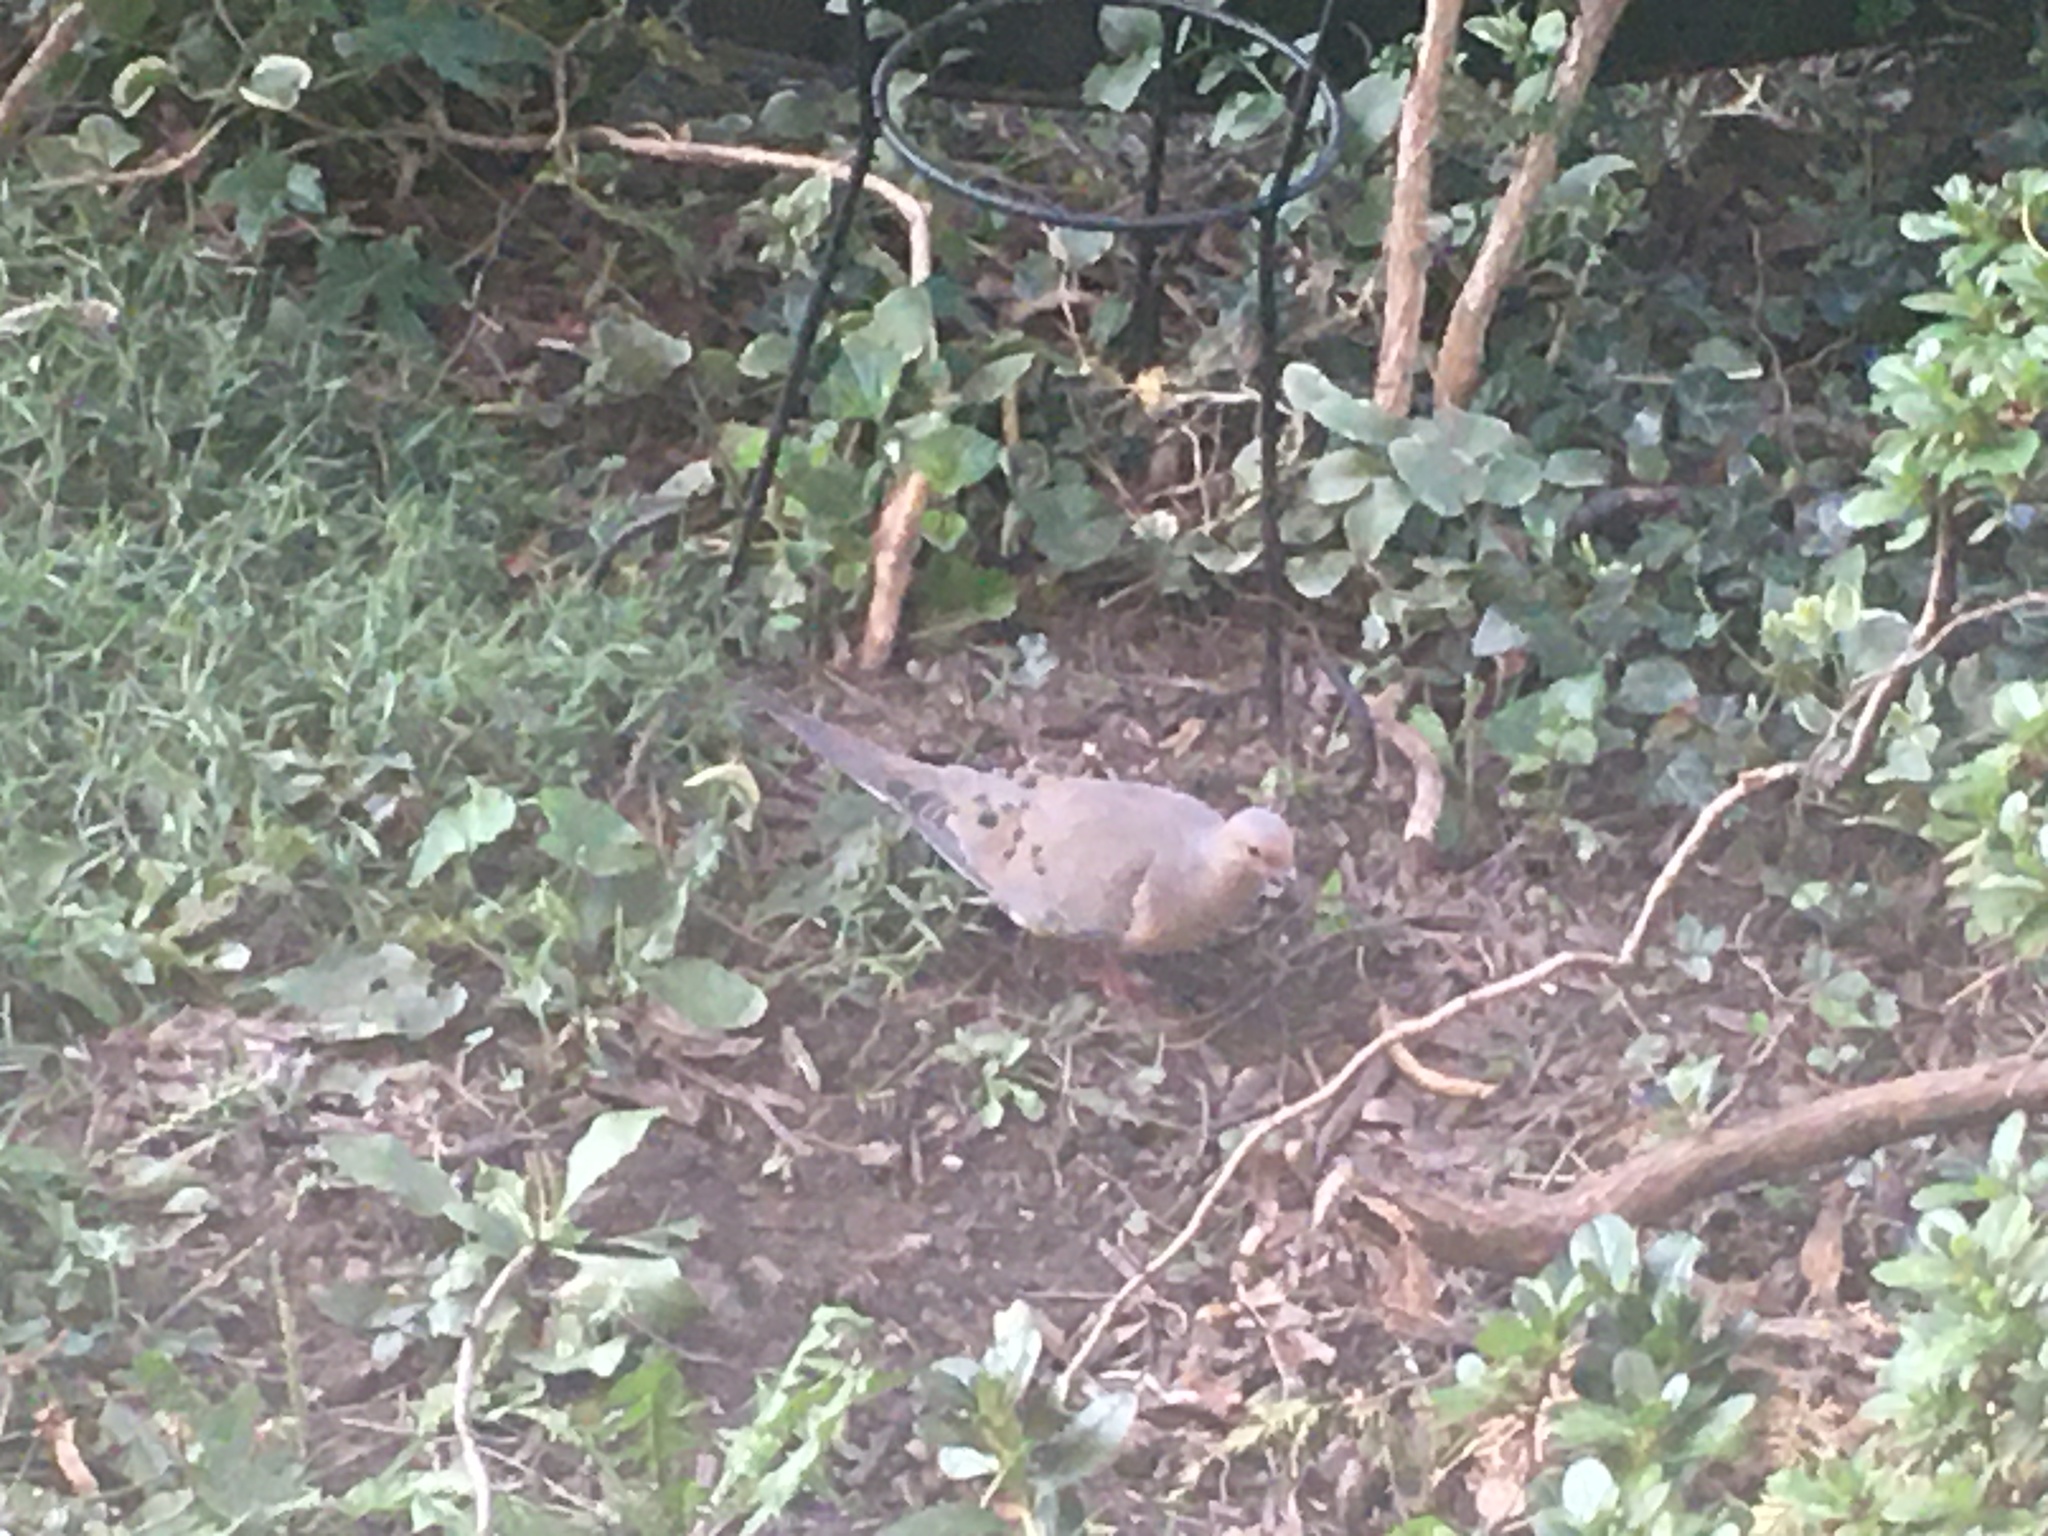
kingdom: Animalia
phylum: Chordata
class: Aves
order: Columbiformes
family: Columbidae
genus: Zenaida
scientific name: Zenaida macroura
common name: Mourning dove
